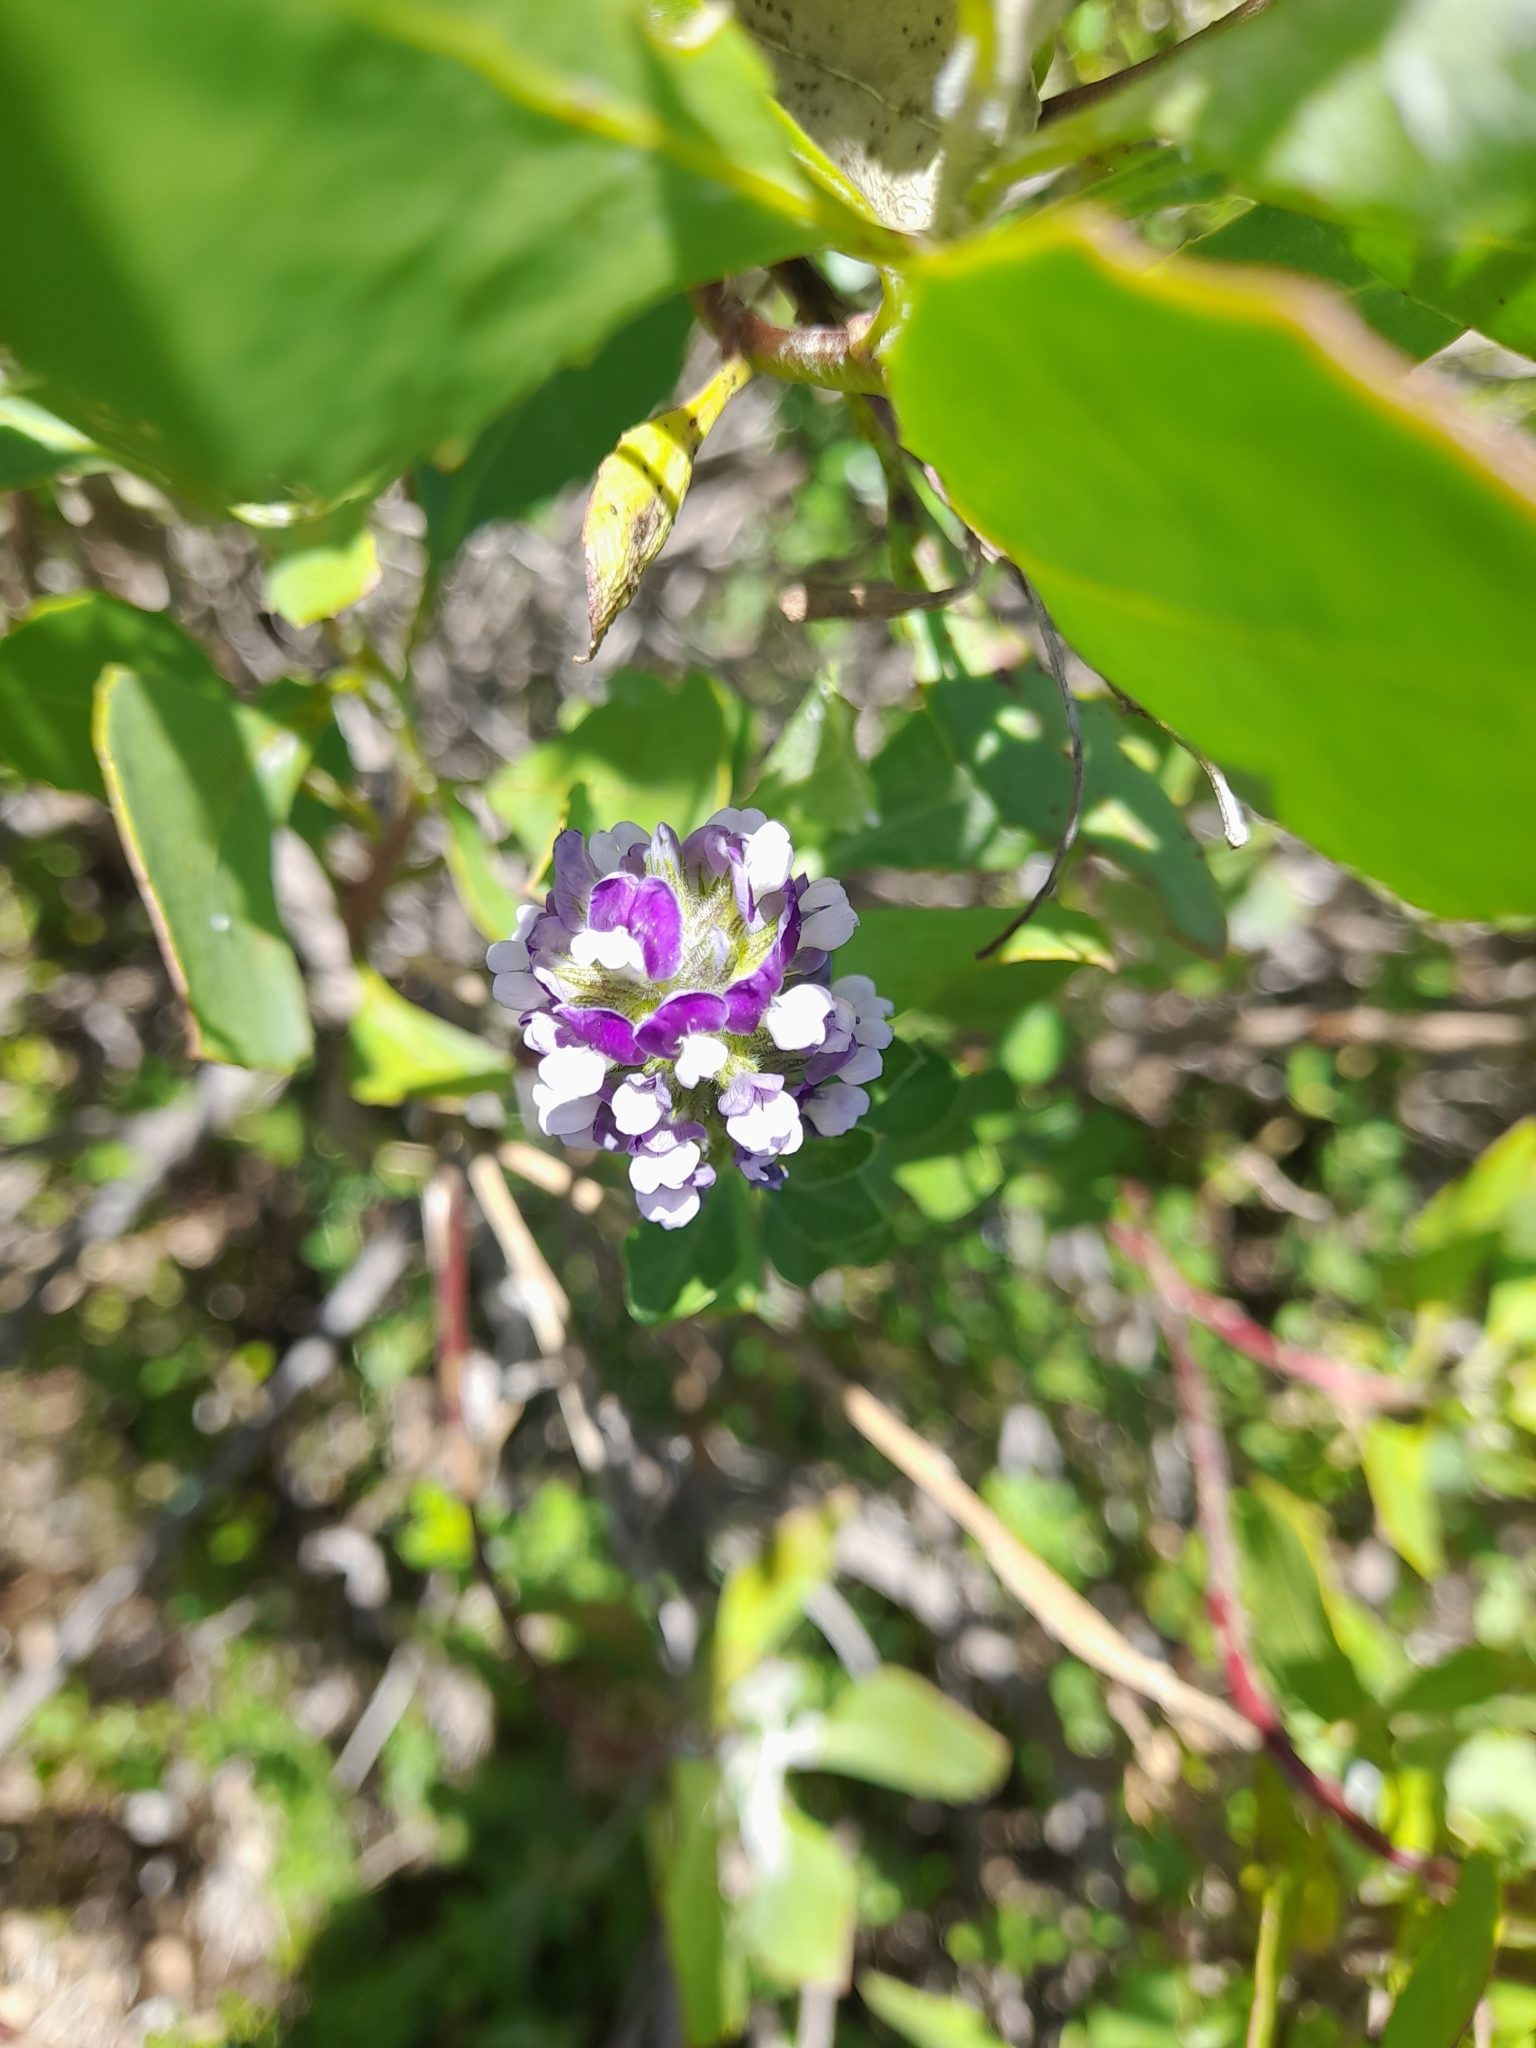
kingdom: Plantae
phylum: Tracheophyta
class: Magnoliopsida
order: Fabales
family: Fabaceae
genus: Psoralea
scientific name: Psoralea bracteolata
